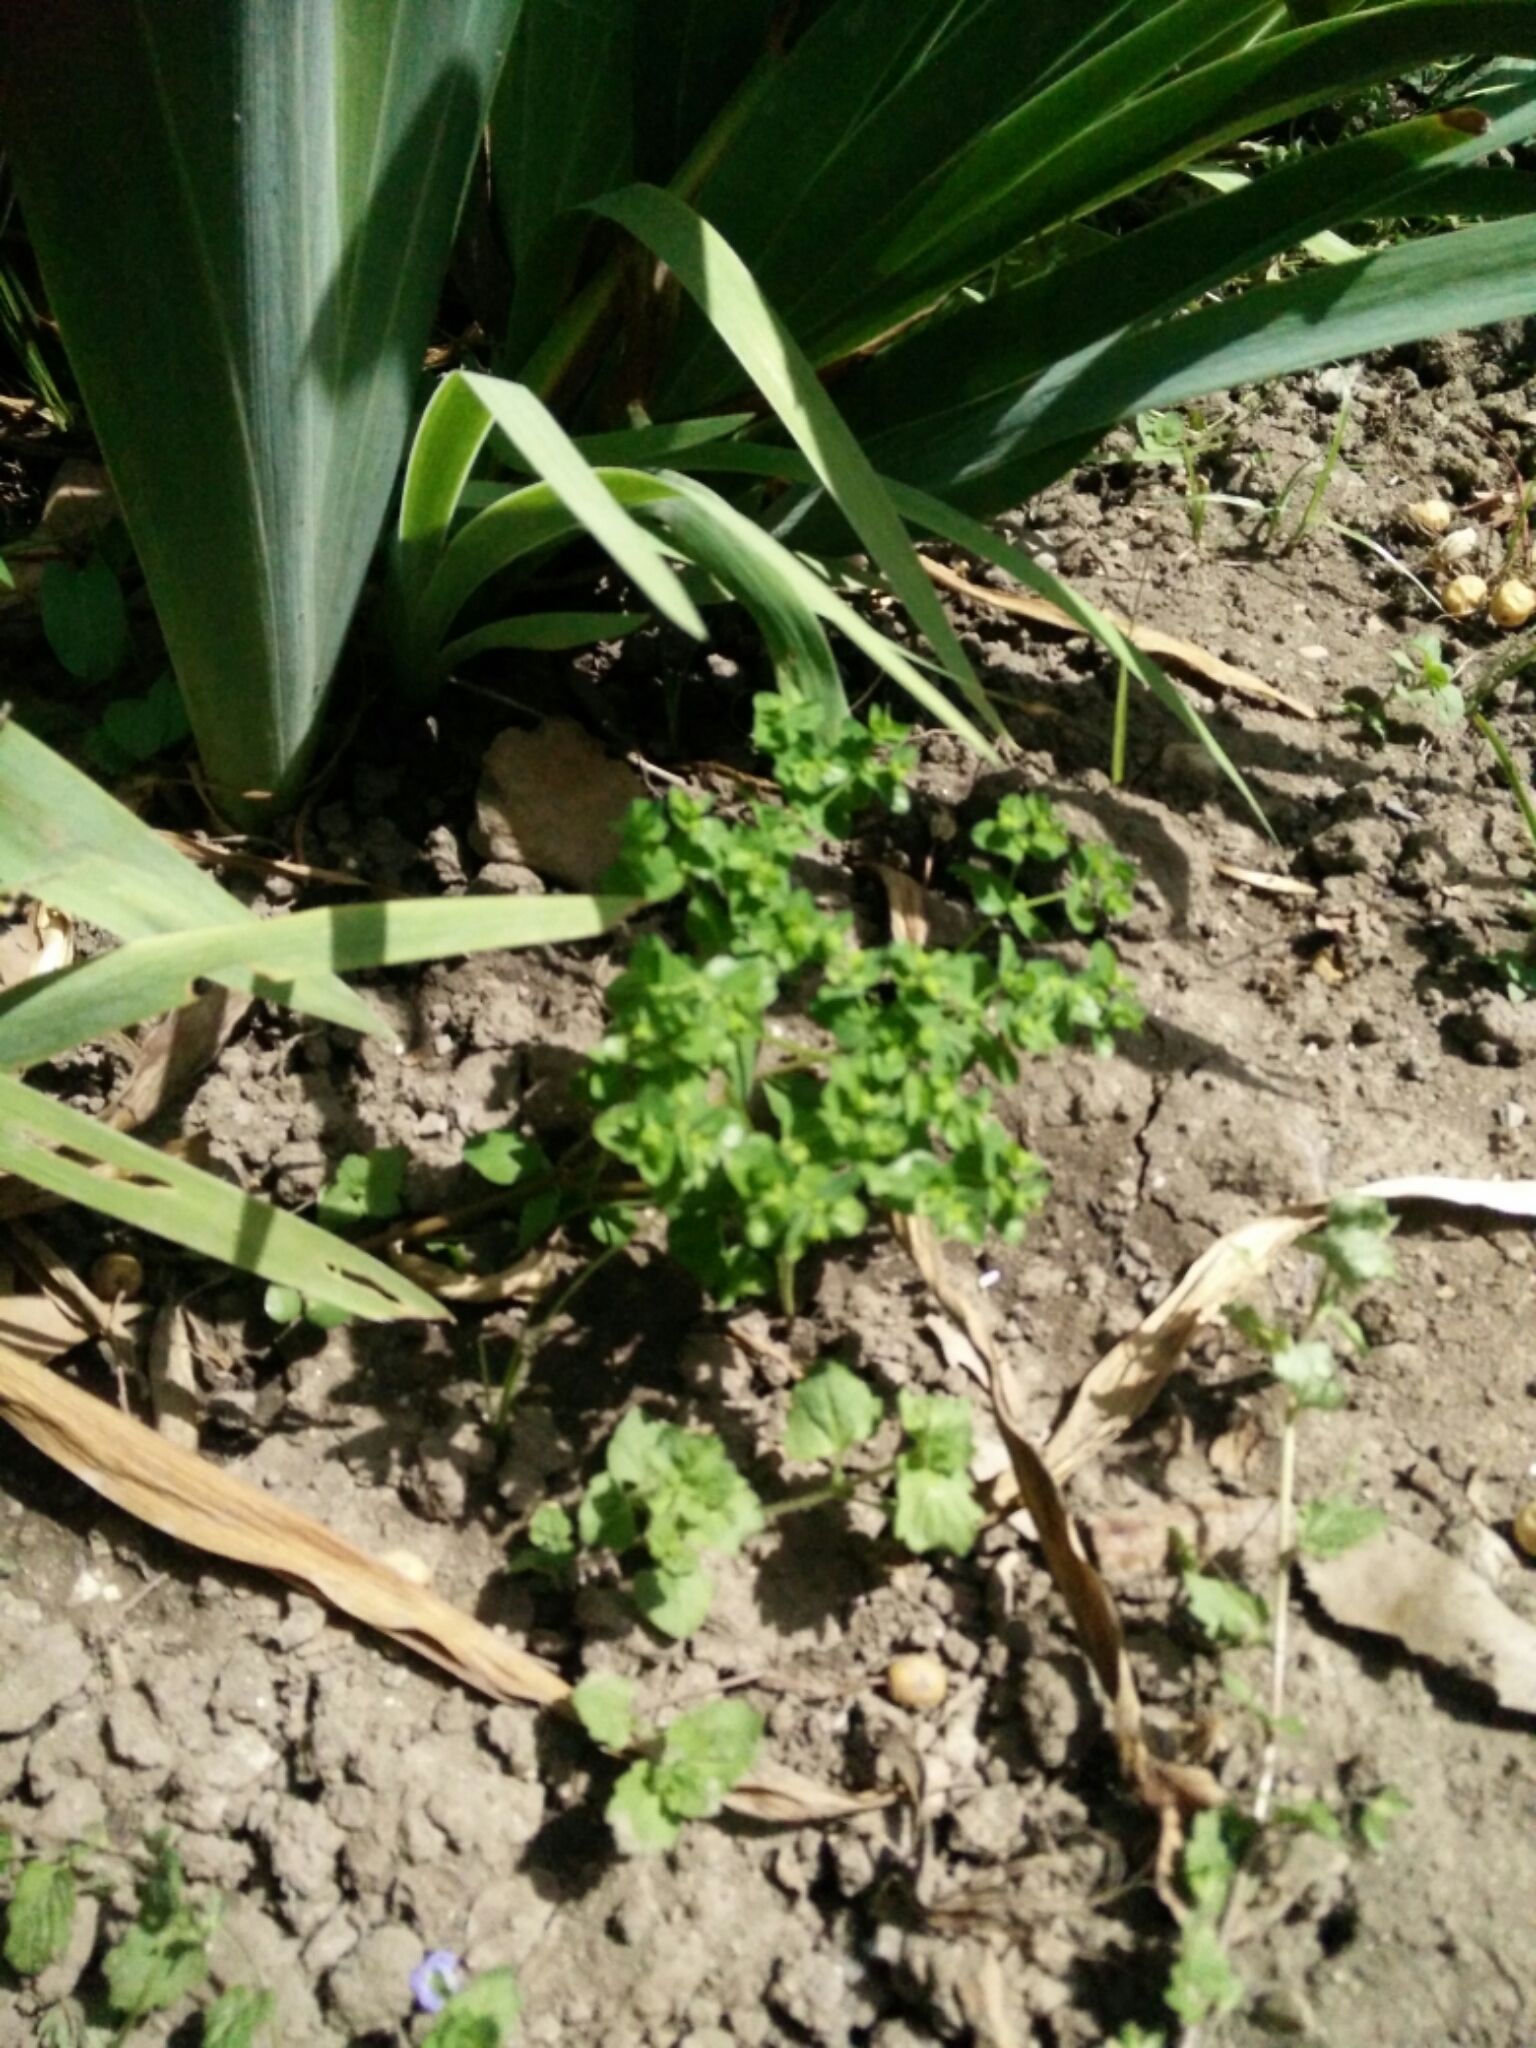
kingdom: Plantae
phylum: Tracheophyta
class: Magnoliopsida
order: Malpighiales
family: Euphorbiaceae
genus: Euphorbia
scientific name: Euphorbia peplus
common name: Petty spurge
